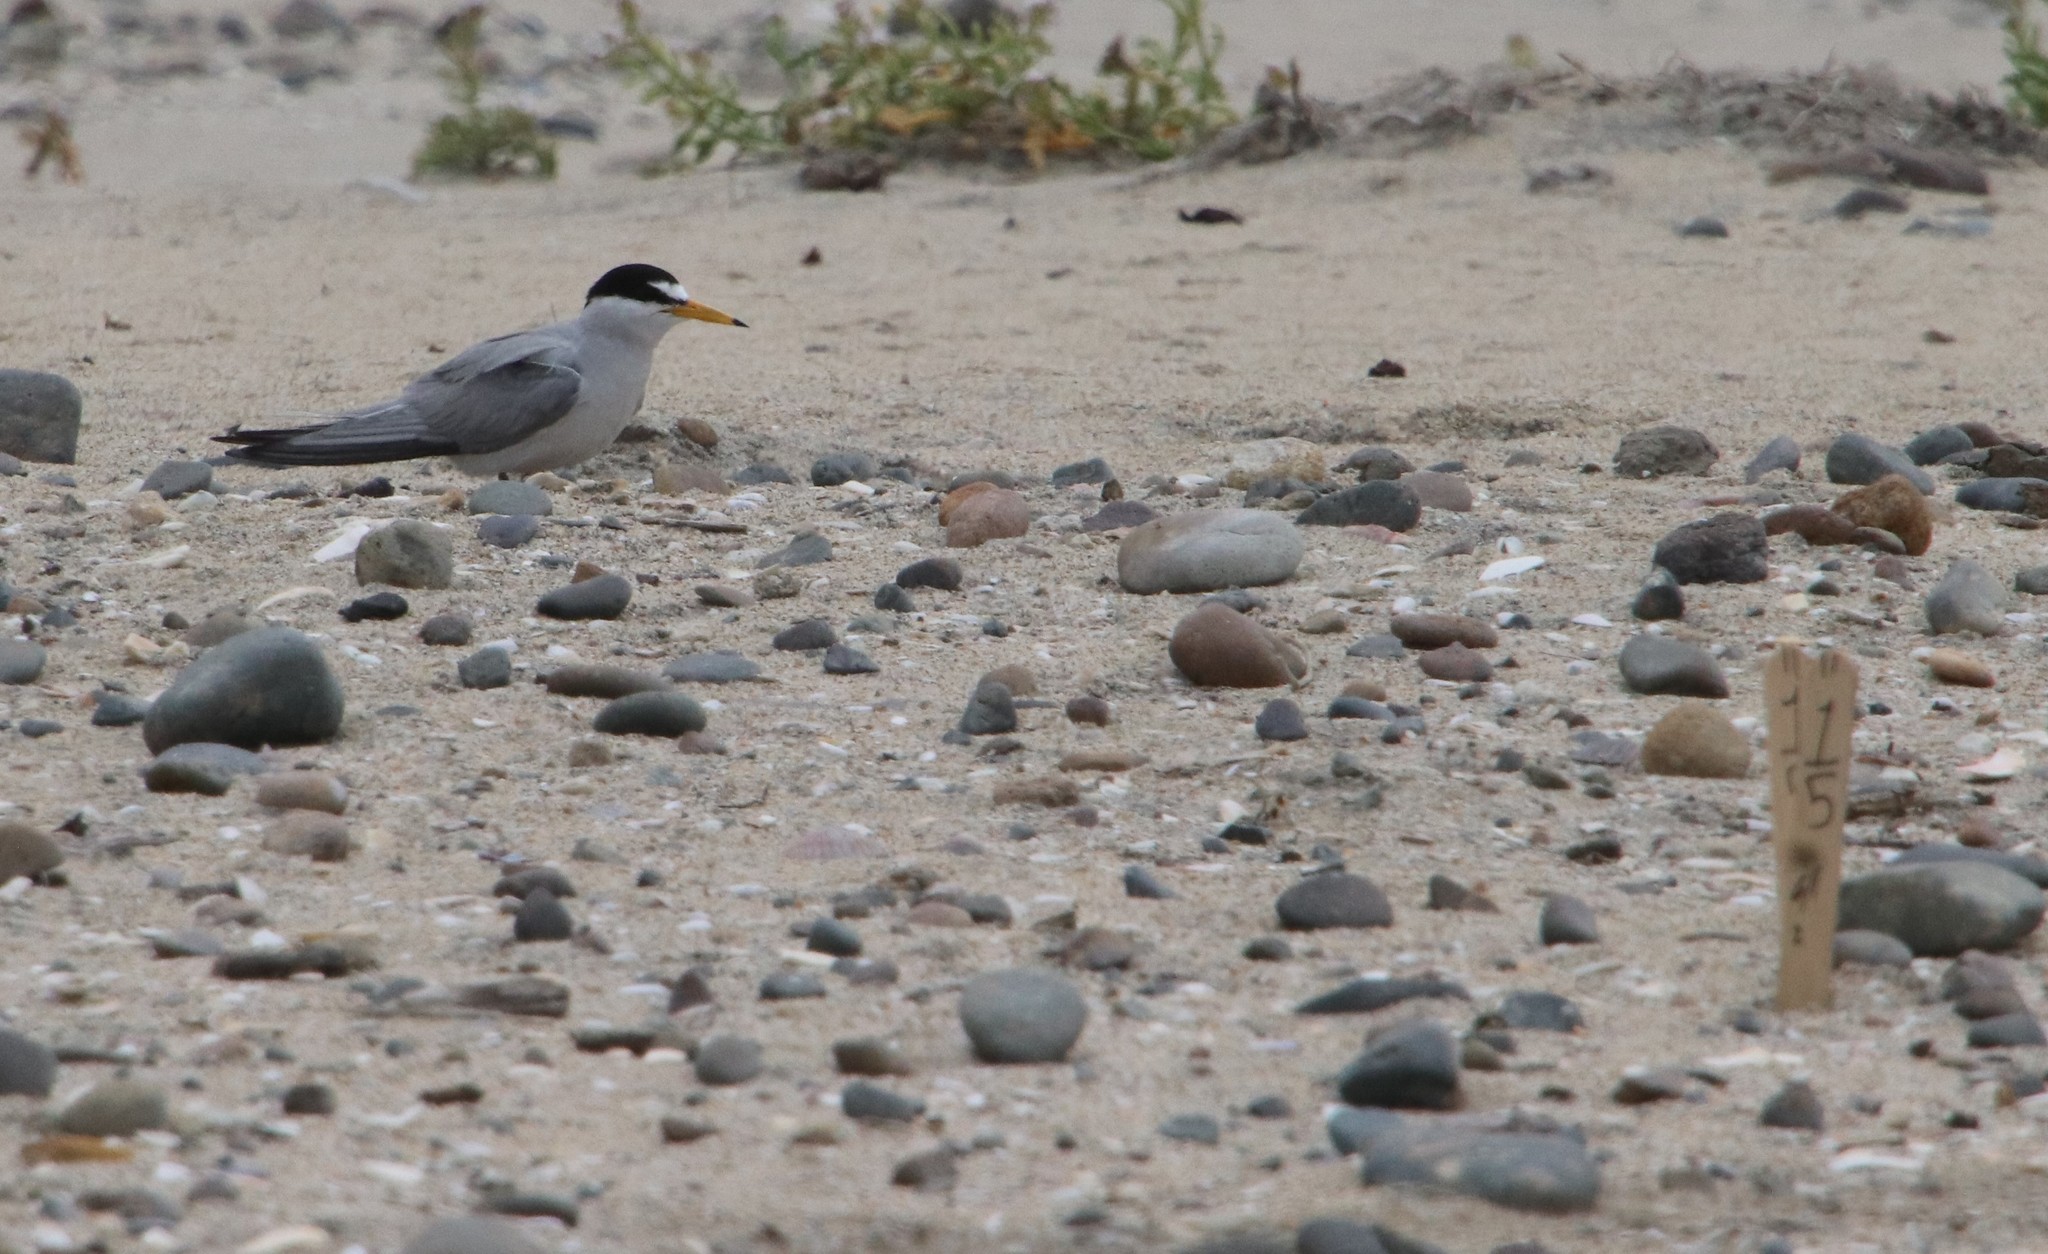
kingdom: Animalia
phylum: Chordata
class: Aves
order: Charadriiformes
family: Laridae
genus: Sternula
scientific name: Sternula antillarum
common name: Least tern
